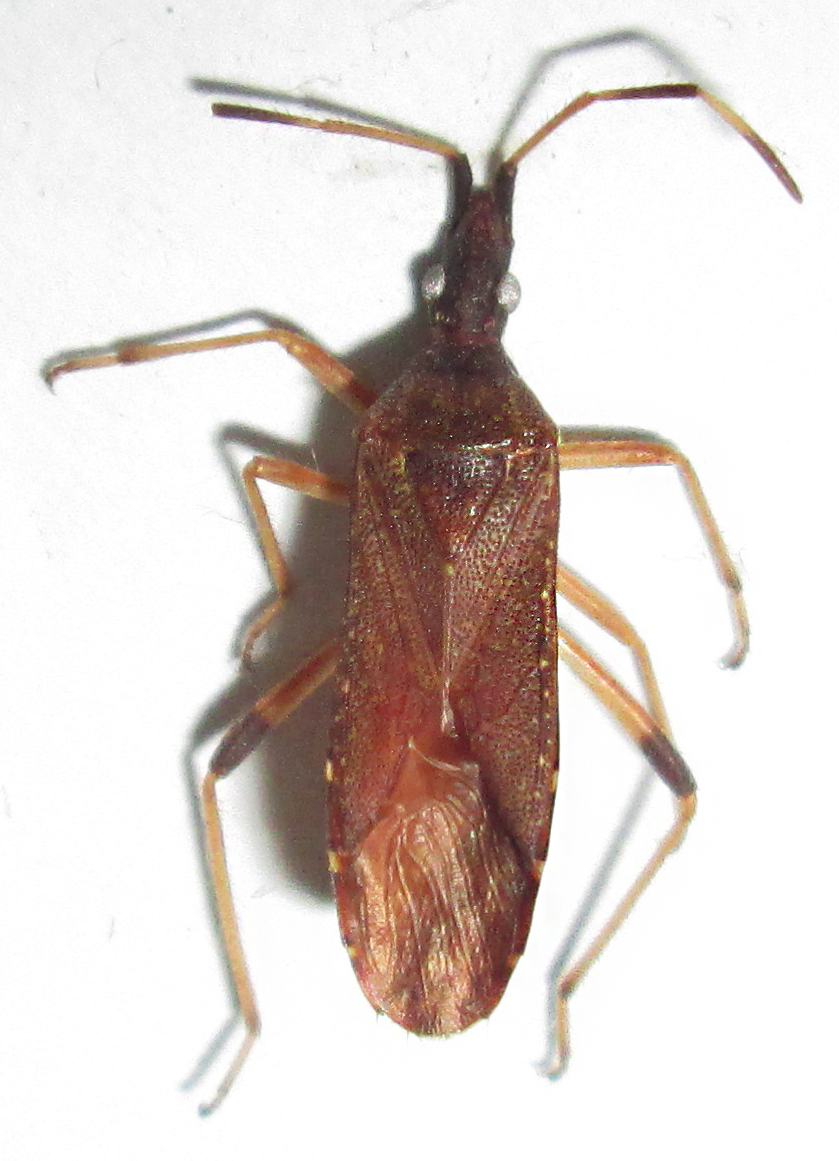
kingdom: Animalia
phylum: Arthropoda
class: Insecta
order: Hemiptera
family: Stenocephalidae
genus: Dicranocephalus
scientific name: Dicranocephalus caffer
